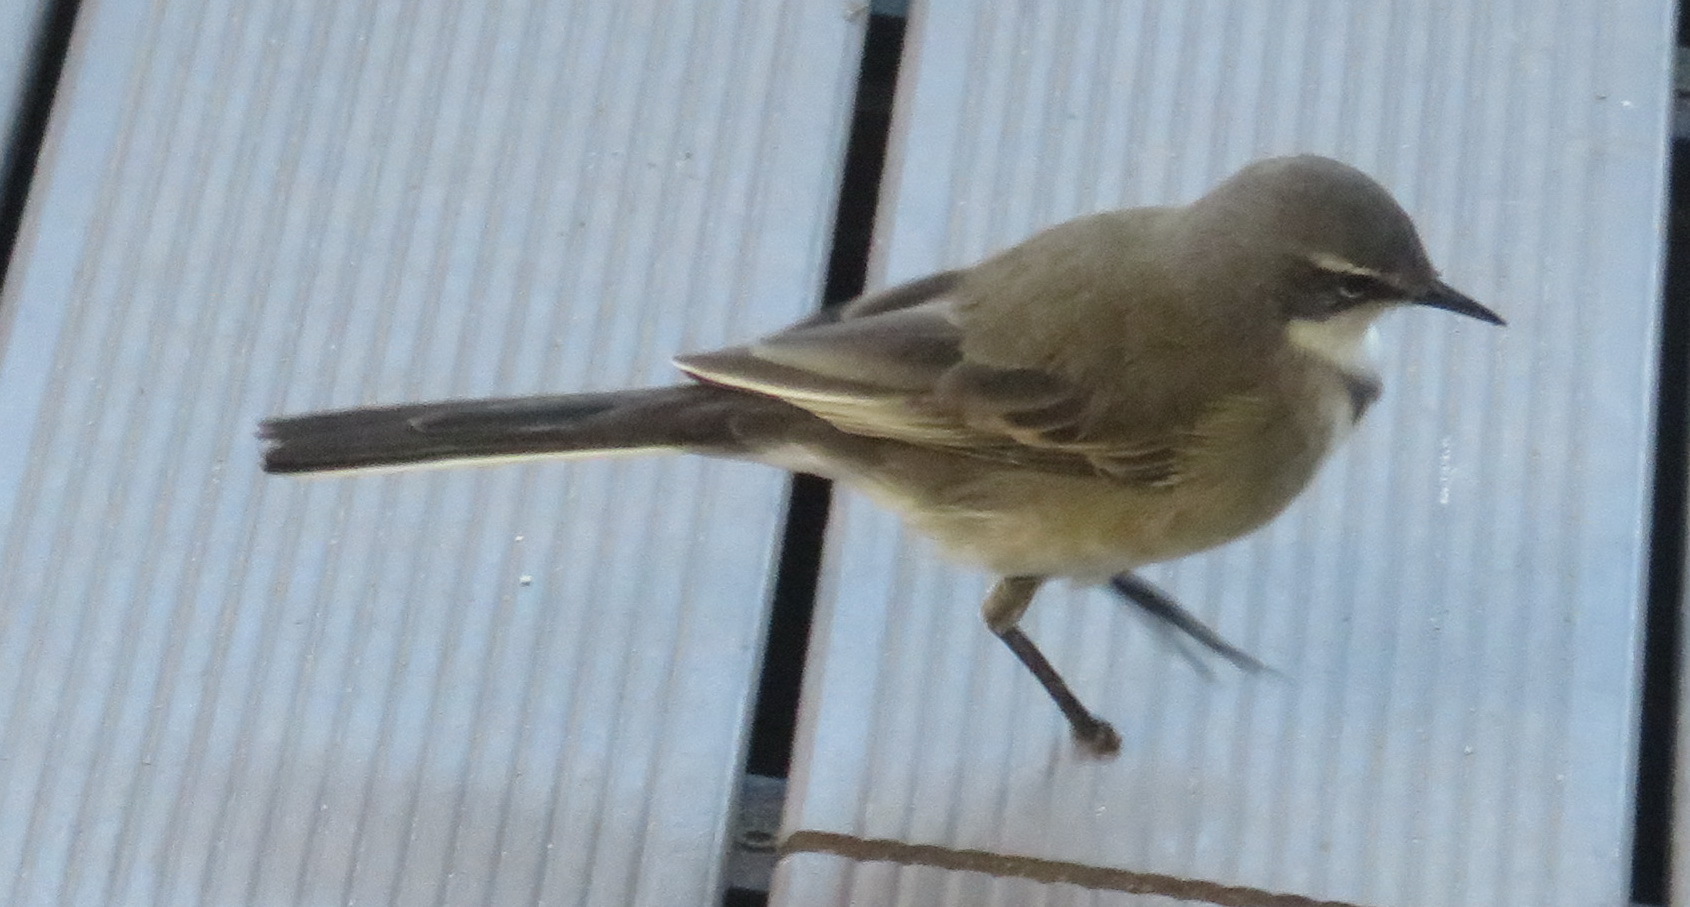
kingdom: Animalia
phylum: Chordata
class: Aves
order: Passeriformes
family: Motacillidae
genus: Motacilla
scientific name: Motacilla capensis
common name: Cape wagtail
